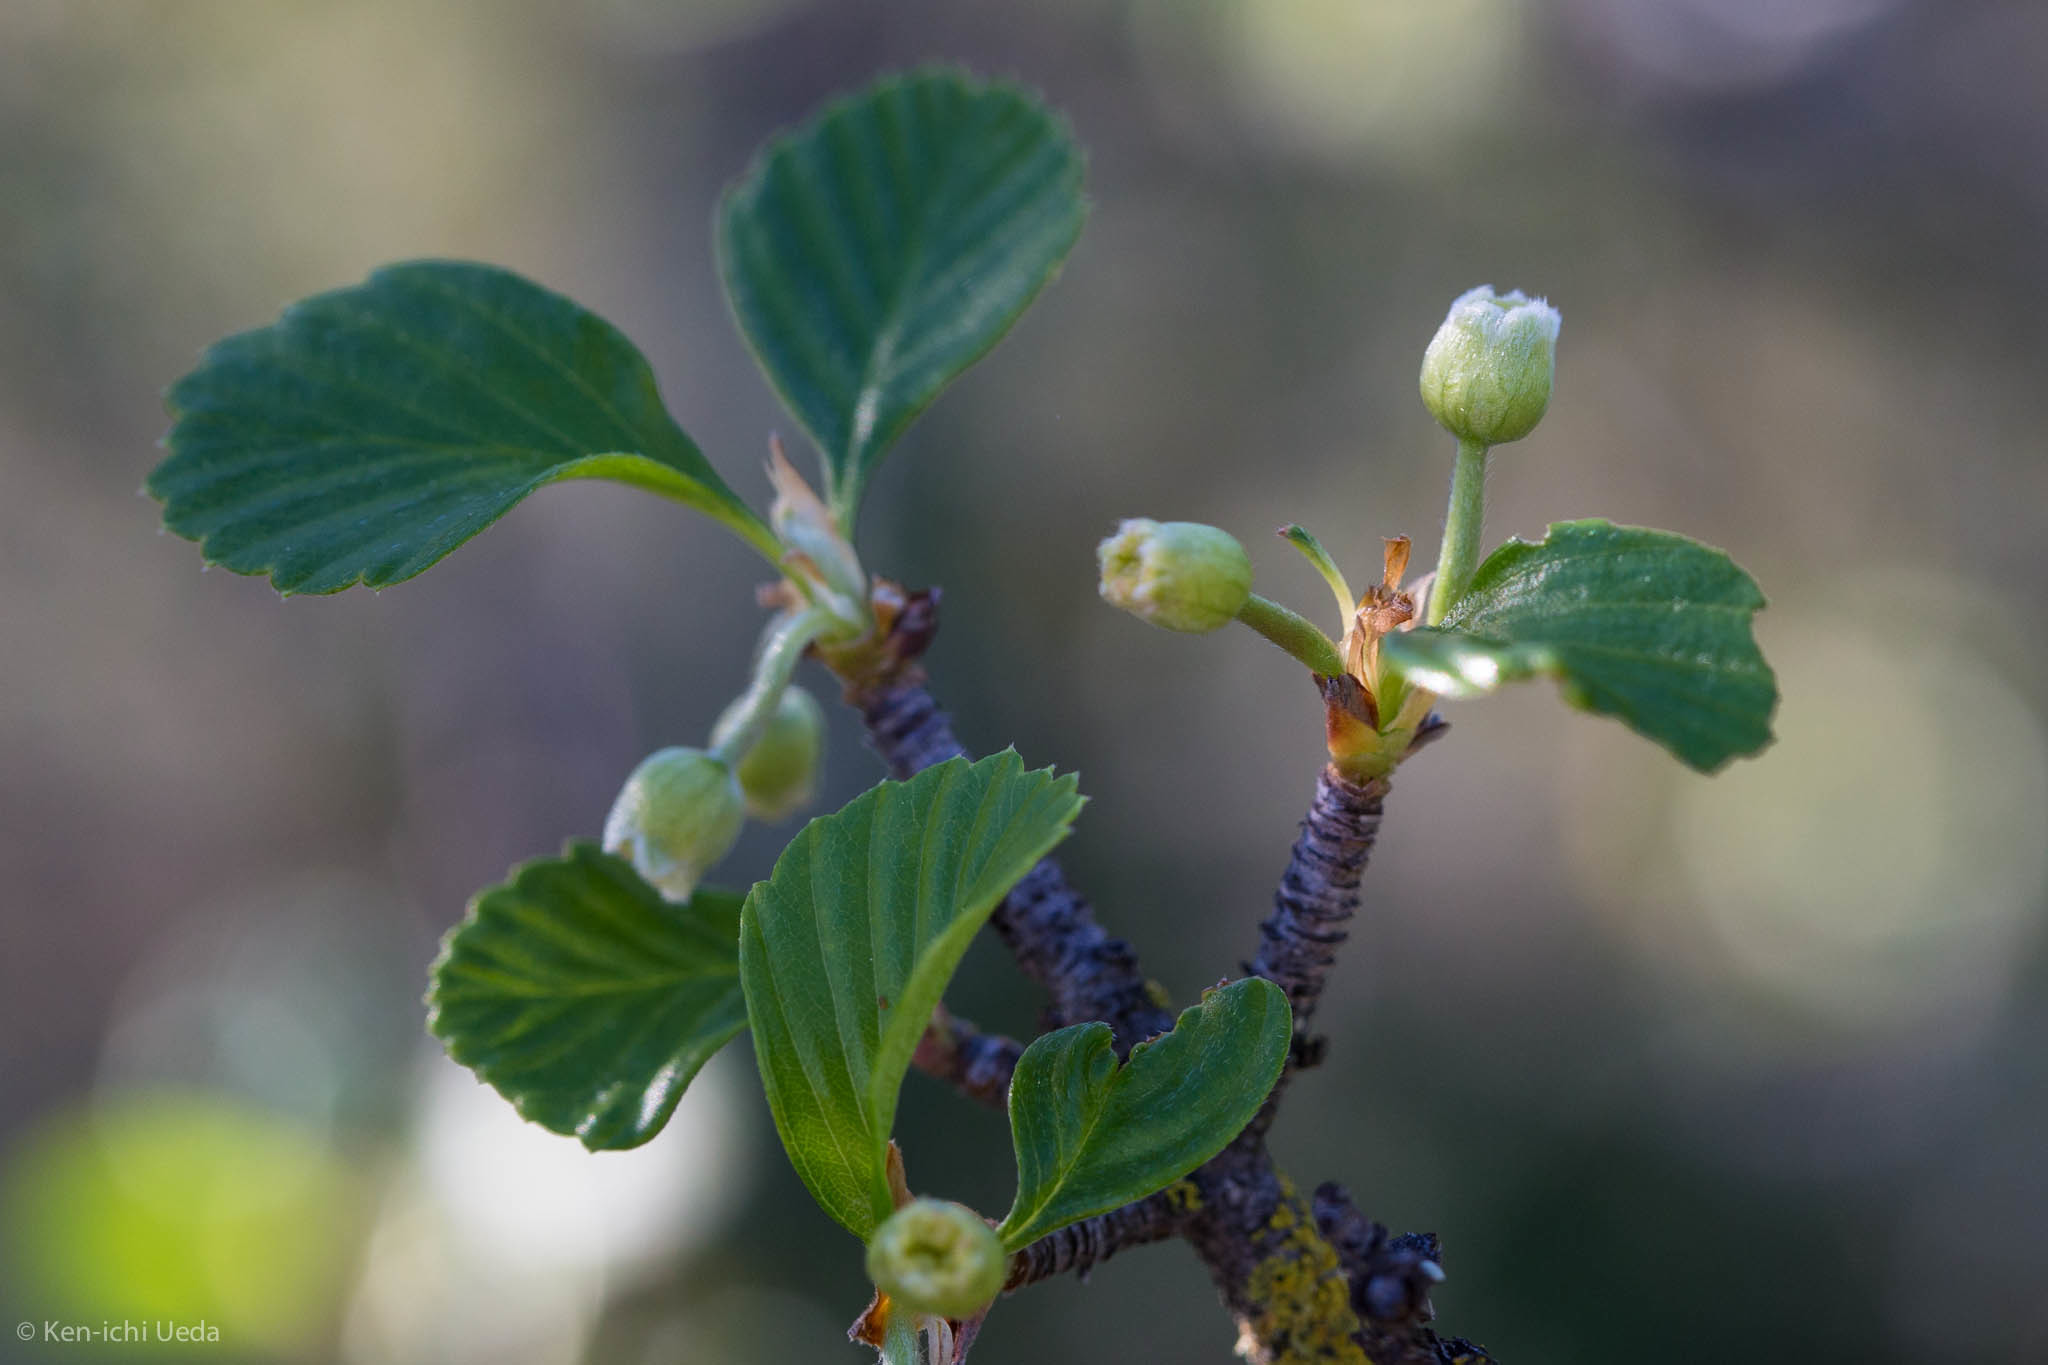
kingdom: Plantae
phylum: Tracheophyta
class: Magnoliopsida
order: Rosales
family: Rosaceae
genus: Cercocarpus
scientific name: Cercocarpus betuloides
